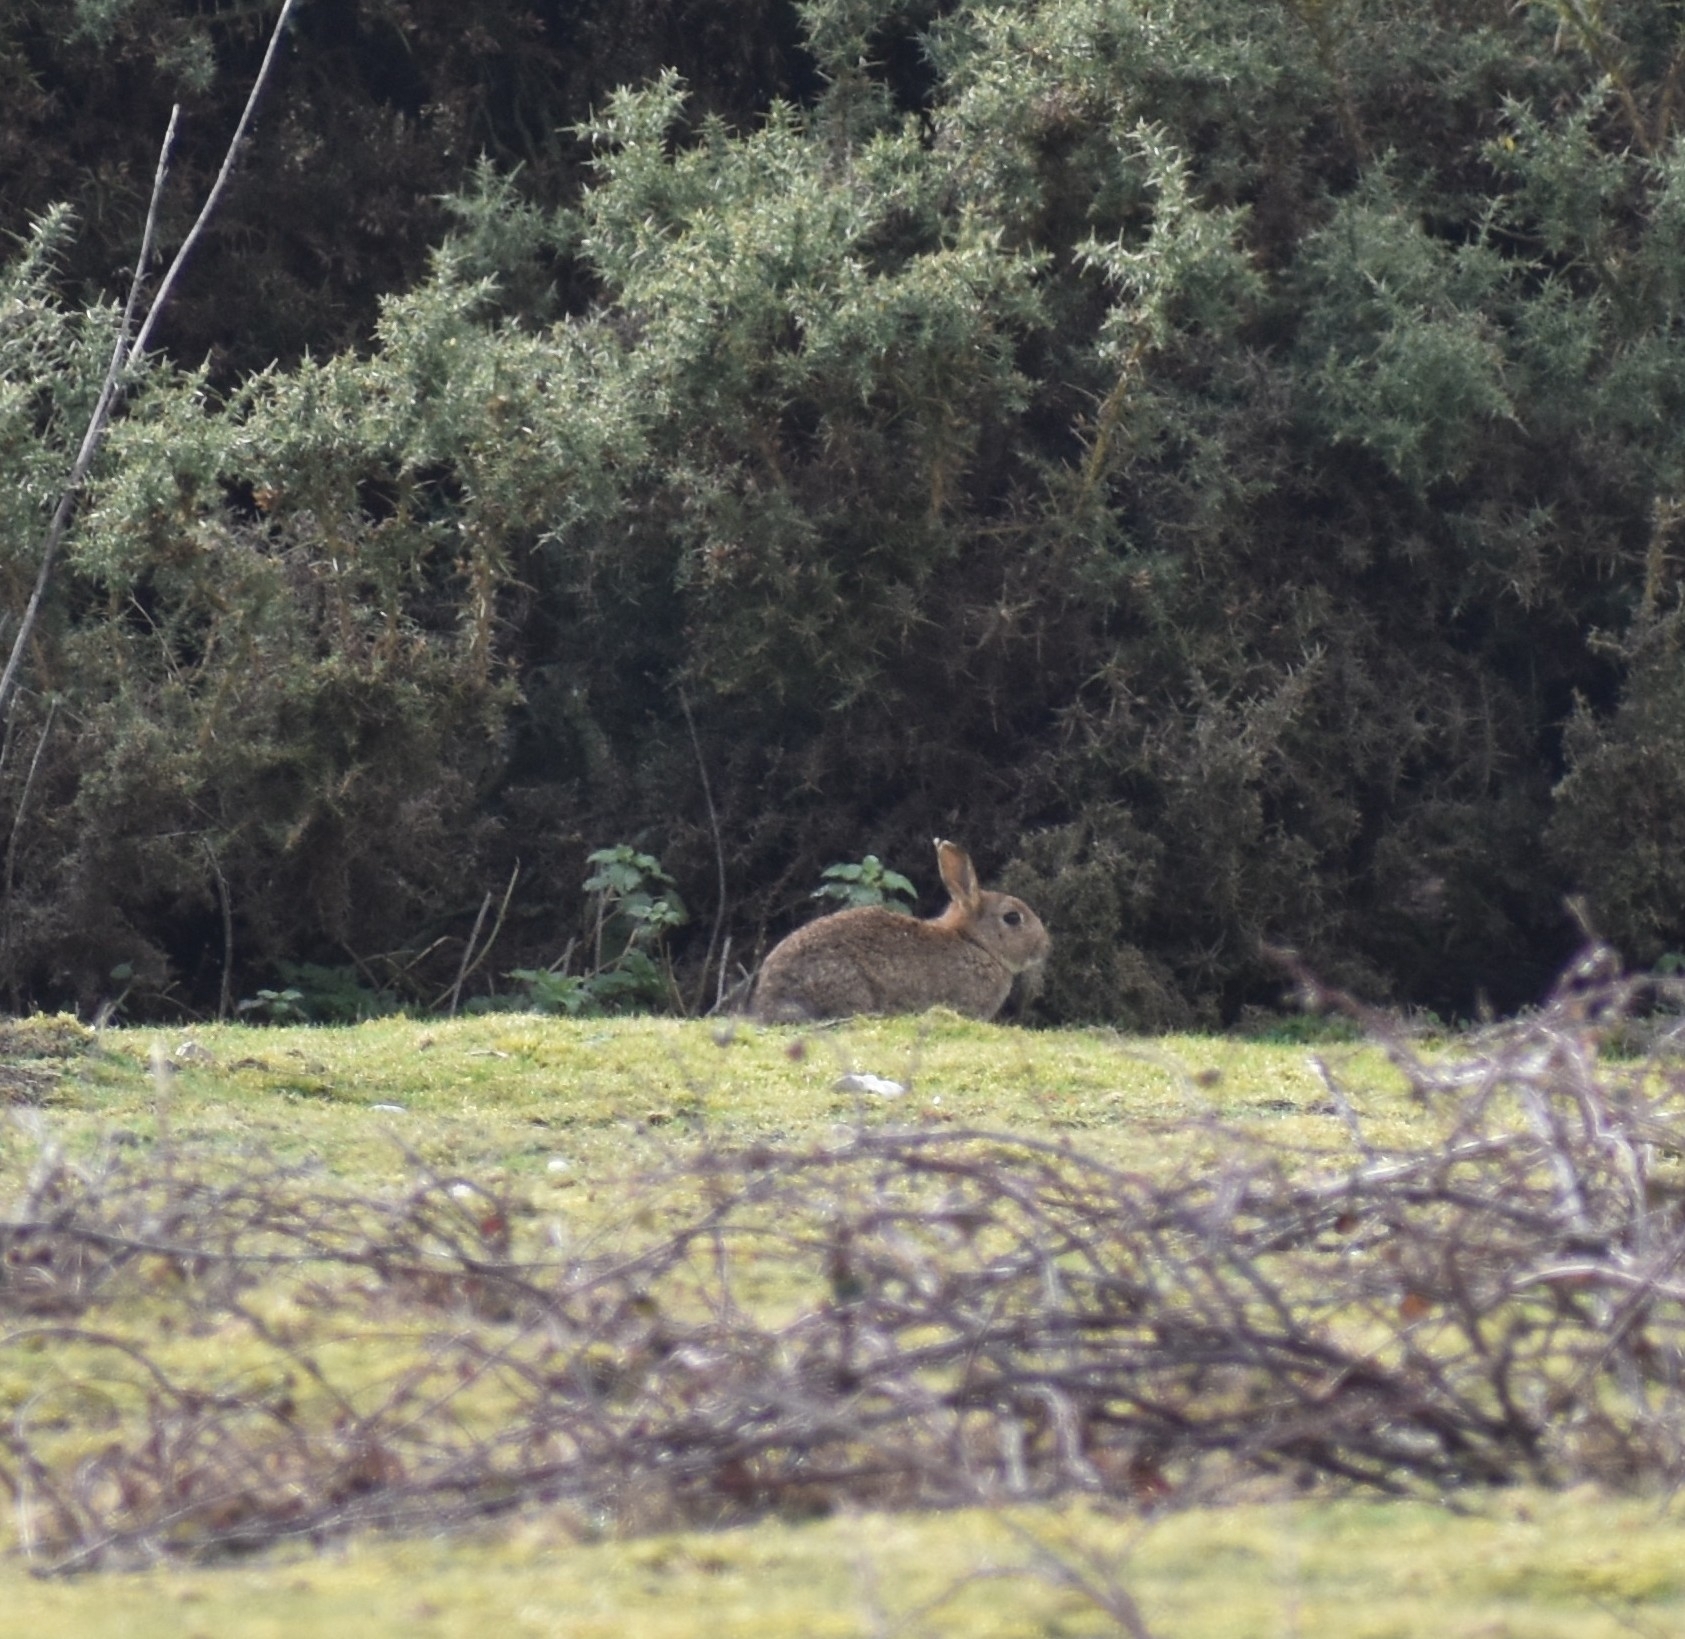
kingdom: Animalia
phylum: Chordata
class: Mammalia
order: Lagomorpha
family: Leporidae
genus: Oryctolagus
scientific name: Oryctolagus cuniculus
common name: European rabbit
